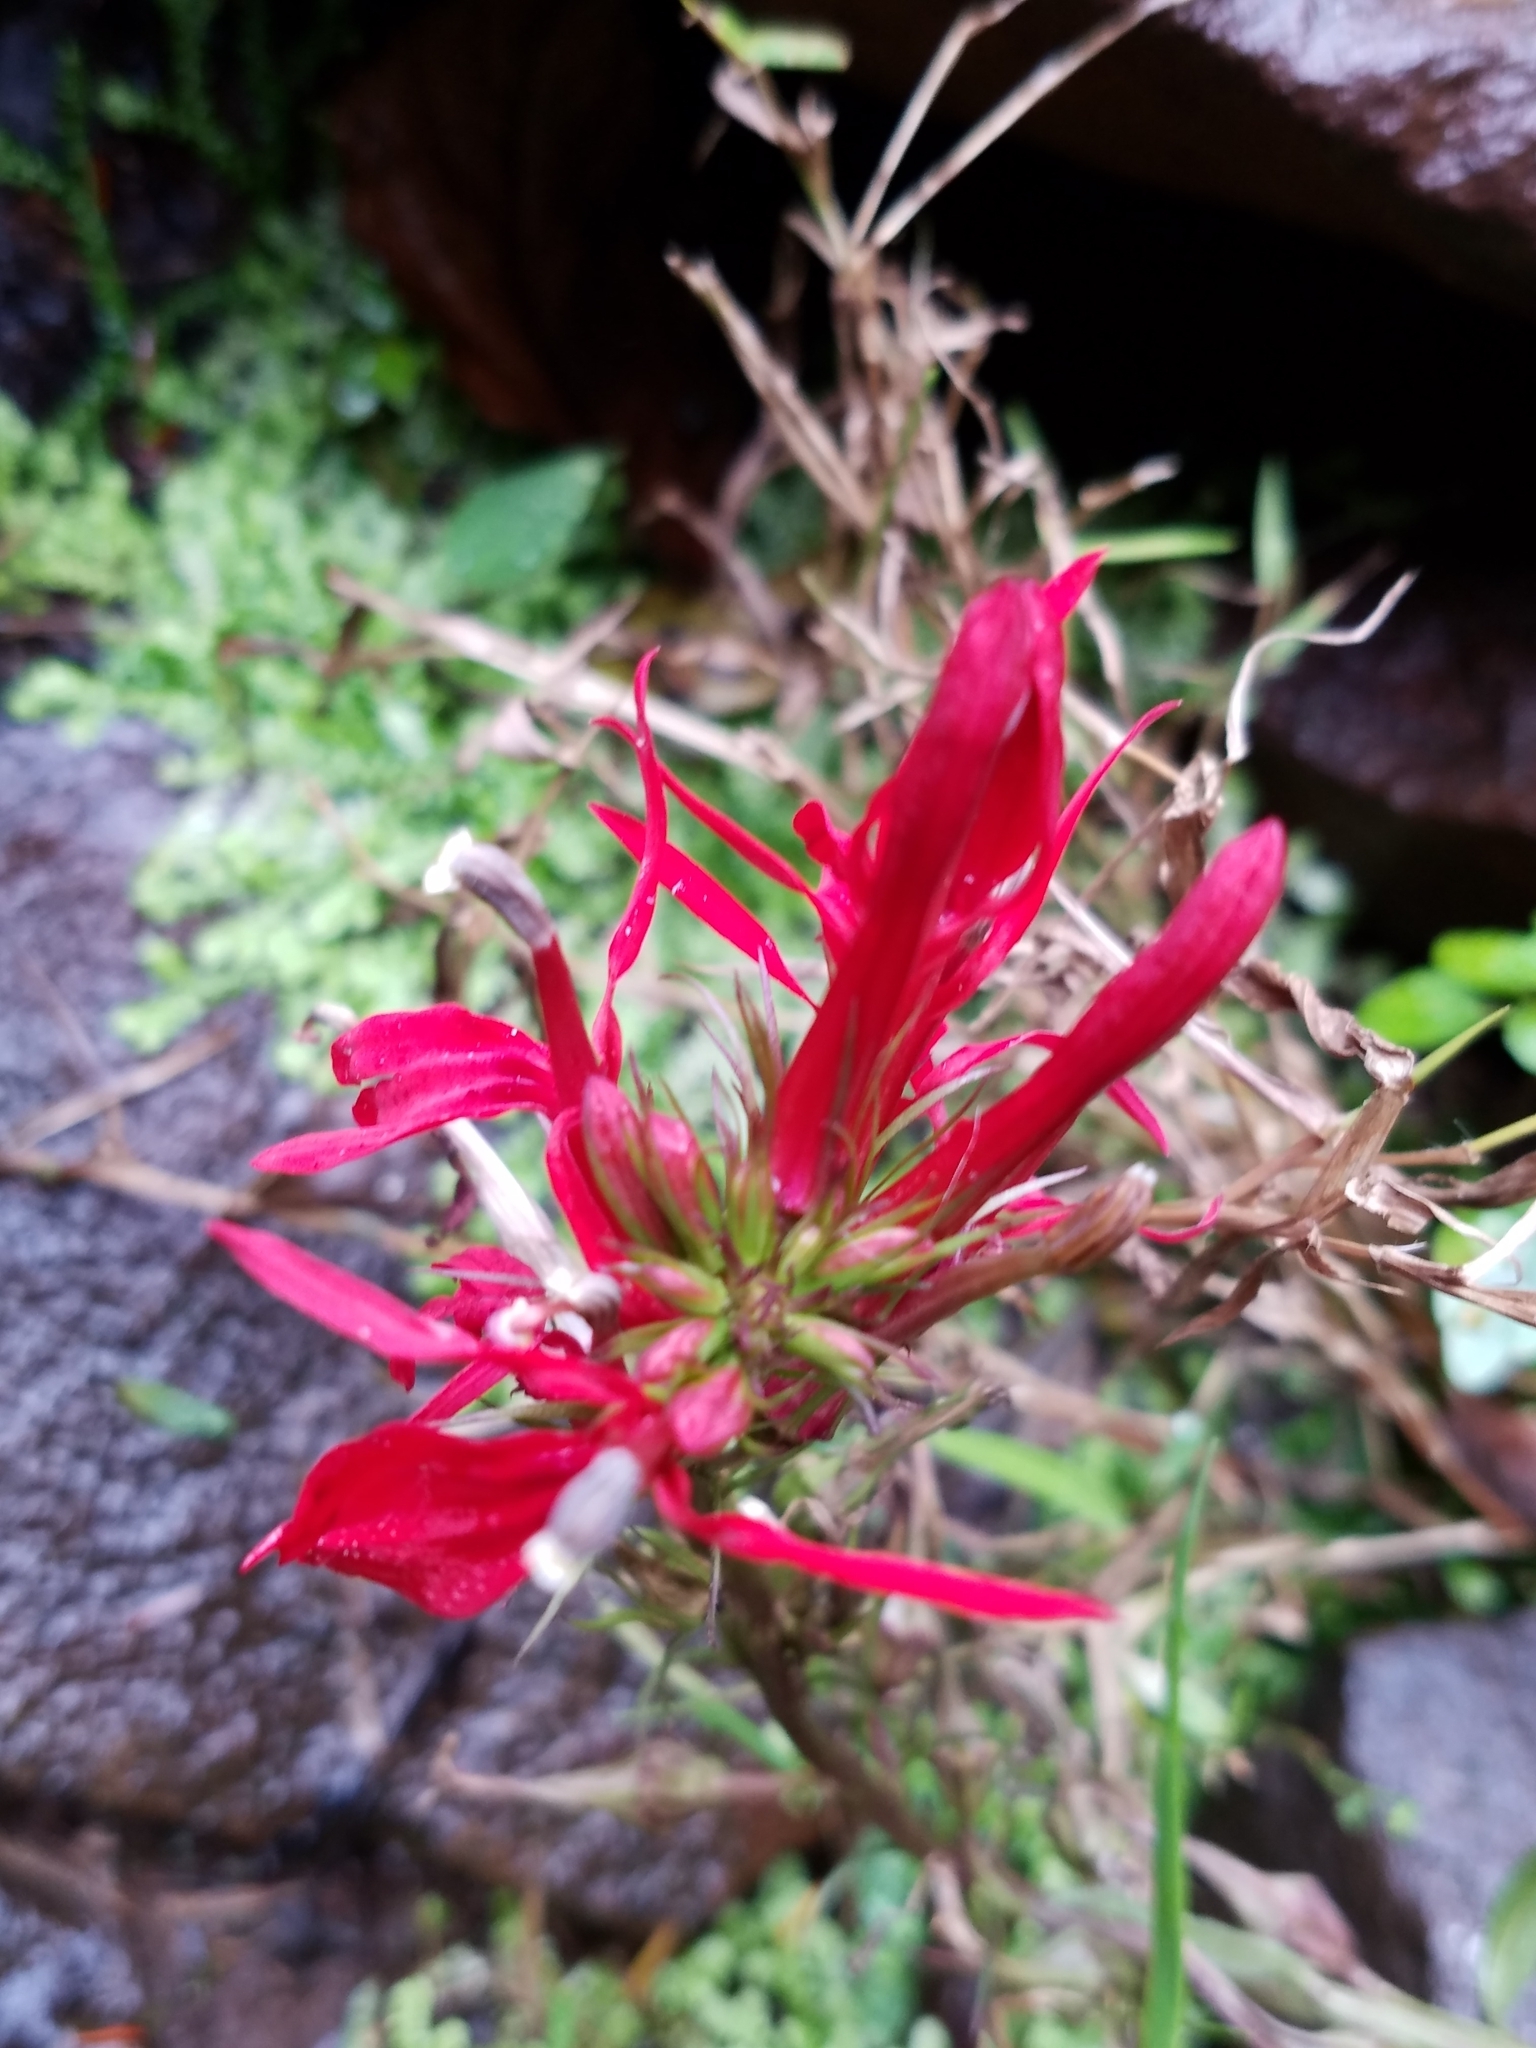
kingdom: Plantae
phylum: Tracheophyta
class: Magnoliopsida
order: Asterales
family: Campanulaceae
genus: Lobelia
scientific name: Lobelia cardinalis
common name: Cardinal flower
